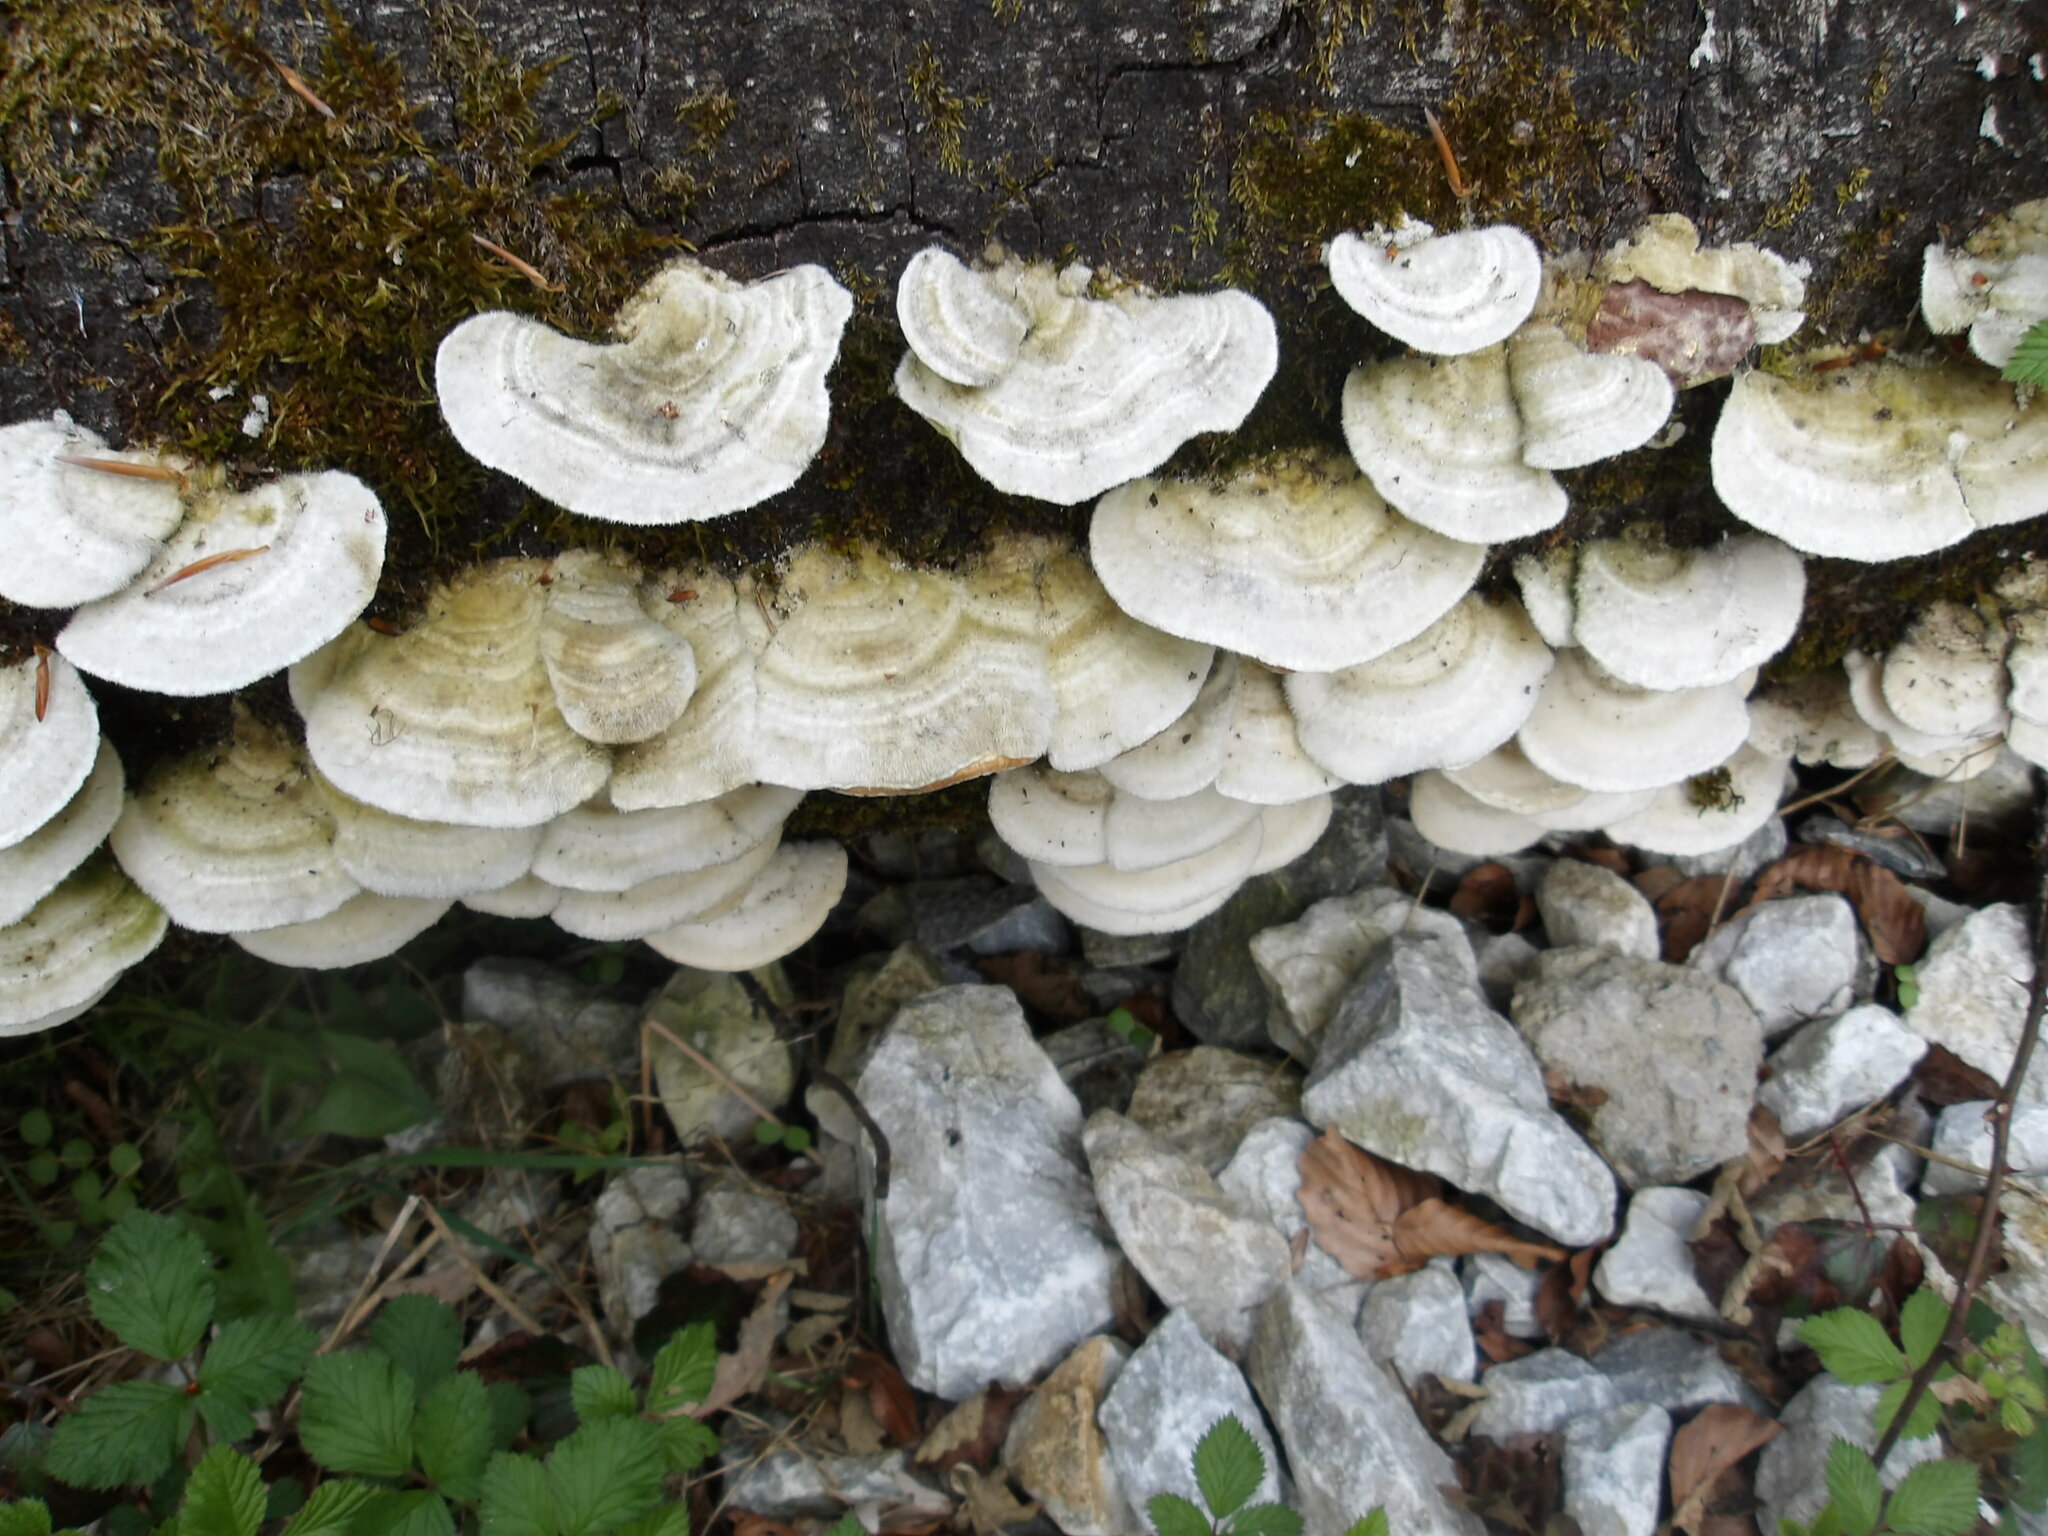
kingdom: Fungi
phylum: Basidiomycota
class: Agaricomycetes
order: Polyporales
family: Polyporaceae
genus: Trametes
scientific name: Trametes hirsuta
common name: Hairy bracket
